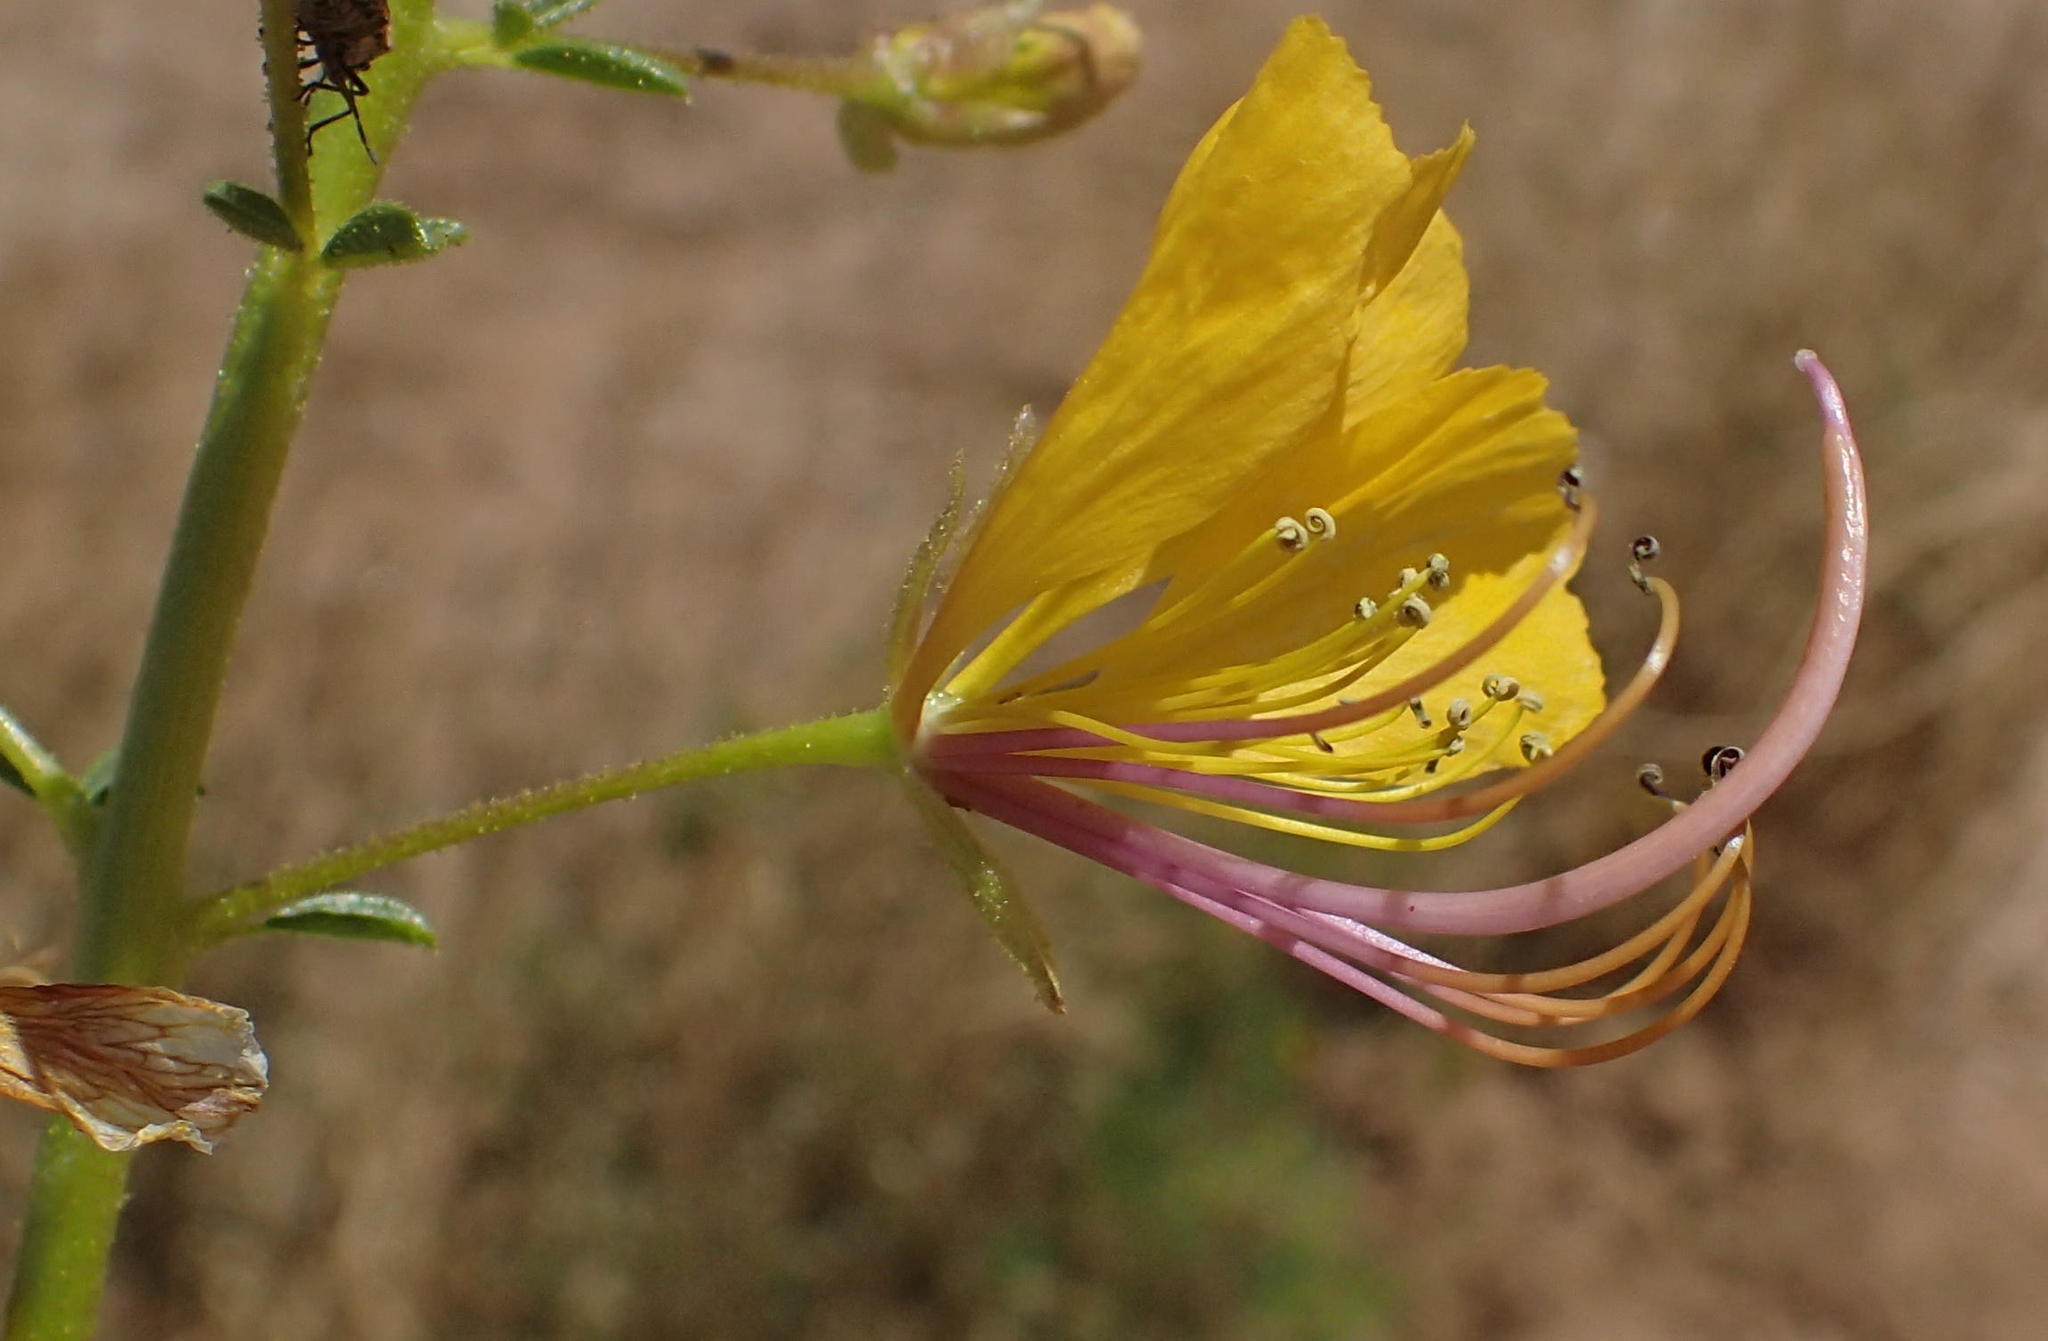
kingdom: Plantae
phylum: Tracheophyta
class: Magnoliopsida
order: Brassicales
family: Cleomaceae
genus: Kersia
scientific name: Kersia foliosa
